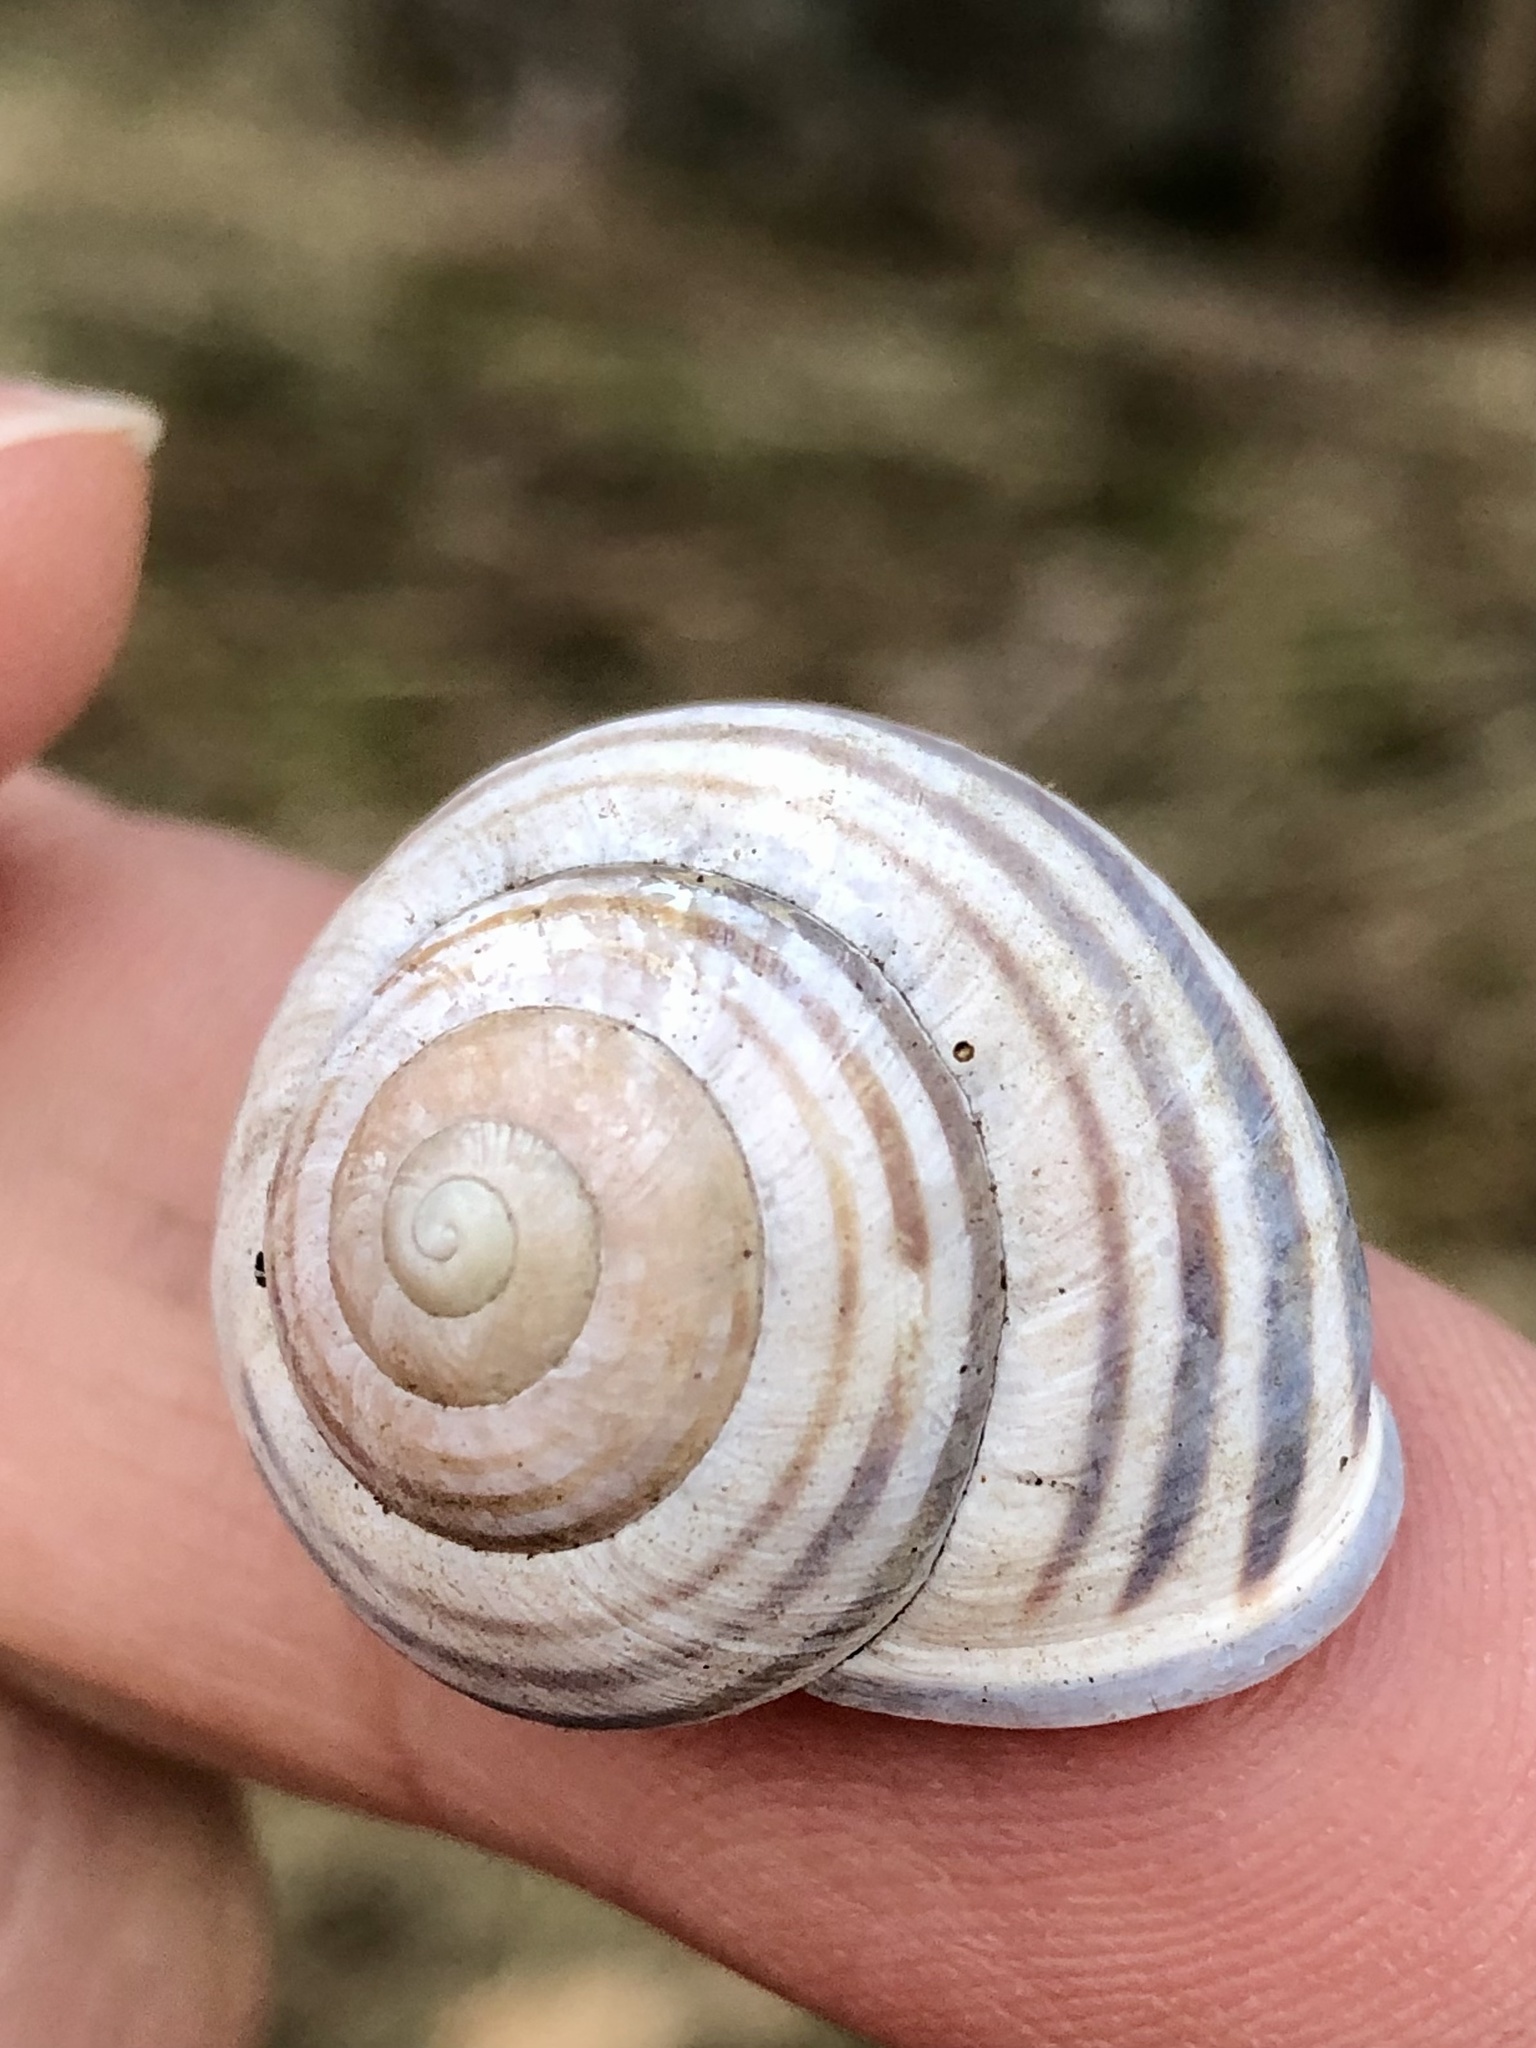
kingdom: Animalia
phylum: Mollusca
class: Gastropoda
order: Stylommatophora
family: Helicidae
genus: Cepaea
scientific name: Cepaea nemoralis
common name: Grovesnail
